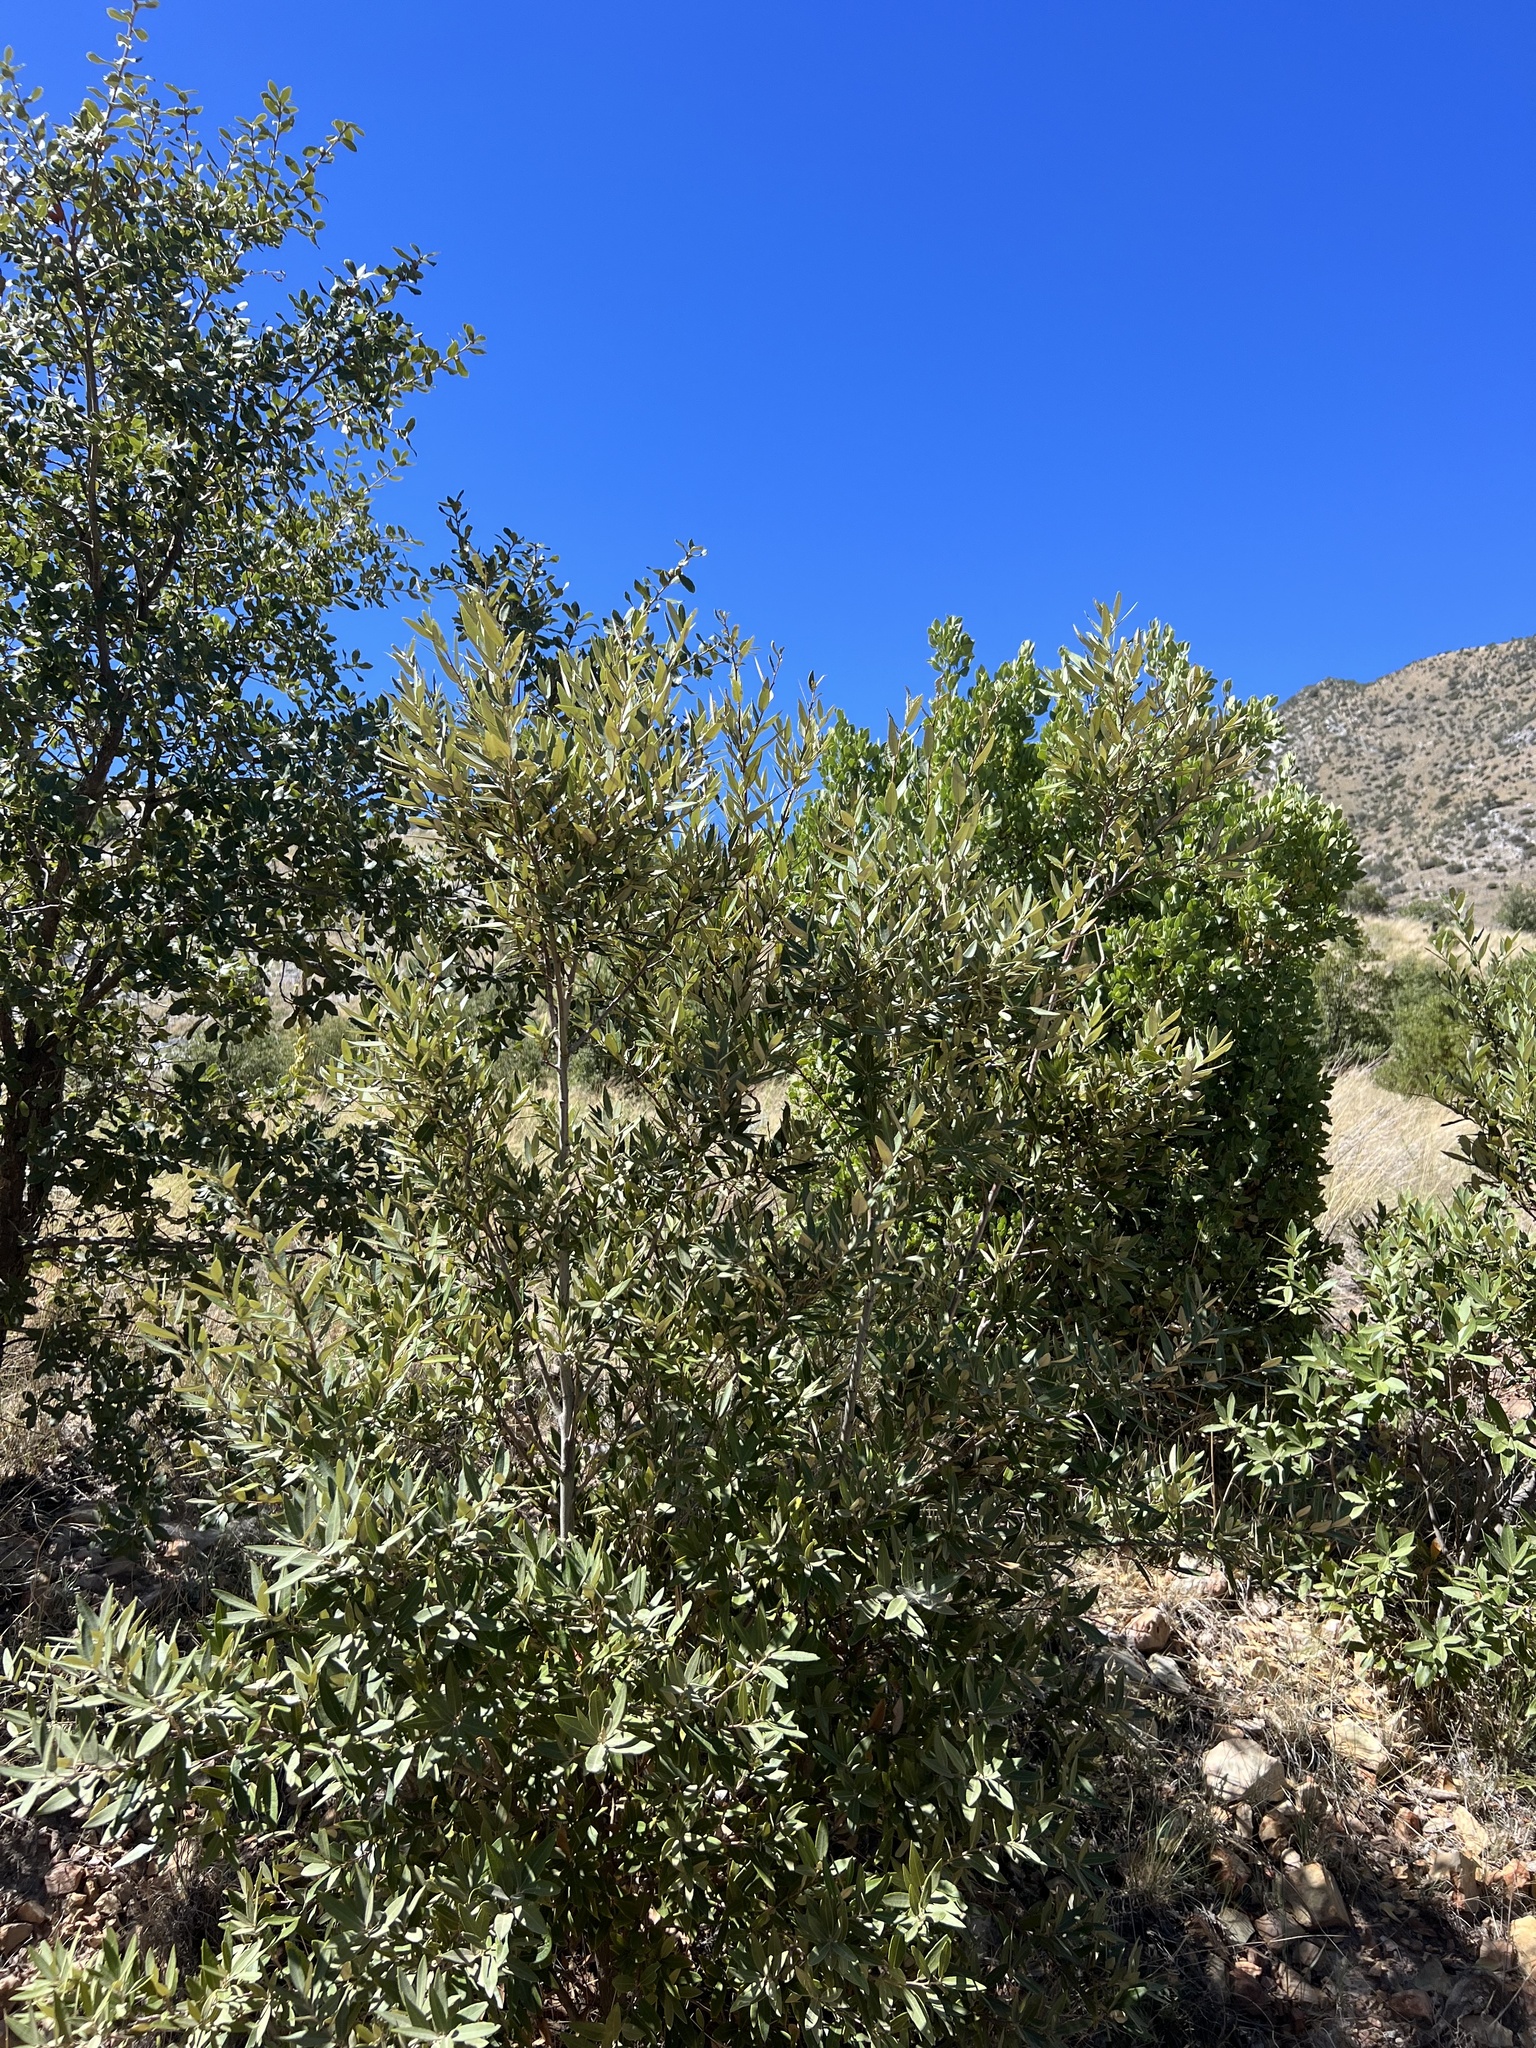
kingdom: Plantae
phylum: Tracheophyta
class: Magnoliopsida
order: Fagales
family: Fagaceae
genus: Quercus
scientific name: Quercus hypoleucoides
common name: Silverleaf oak
